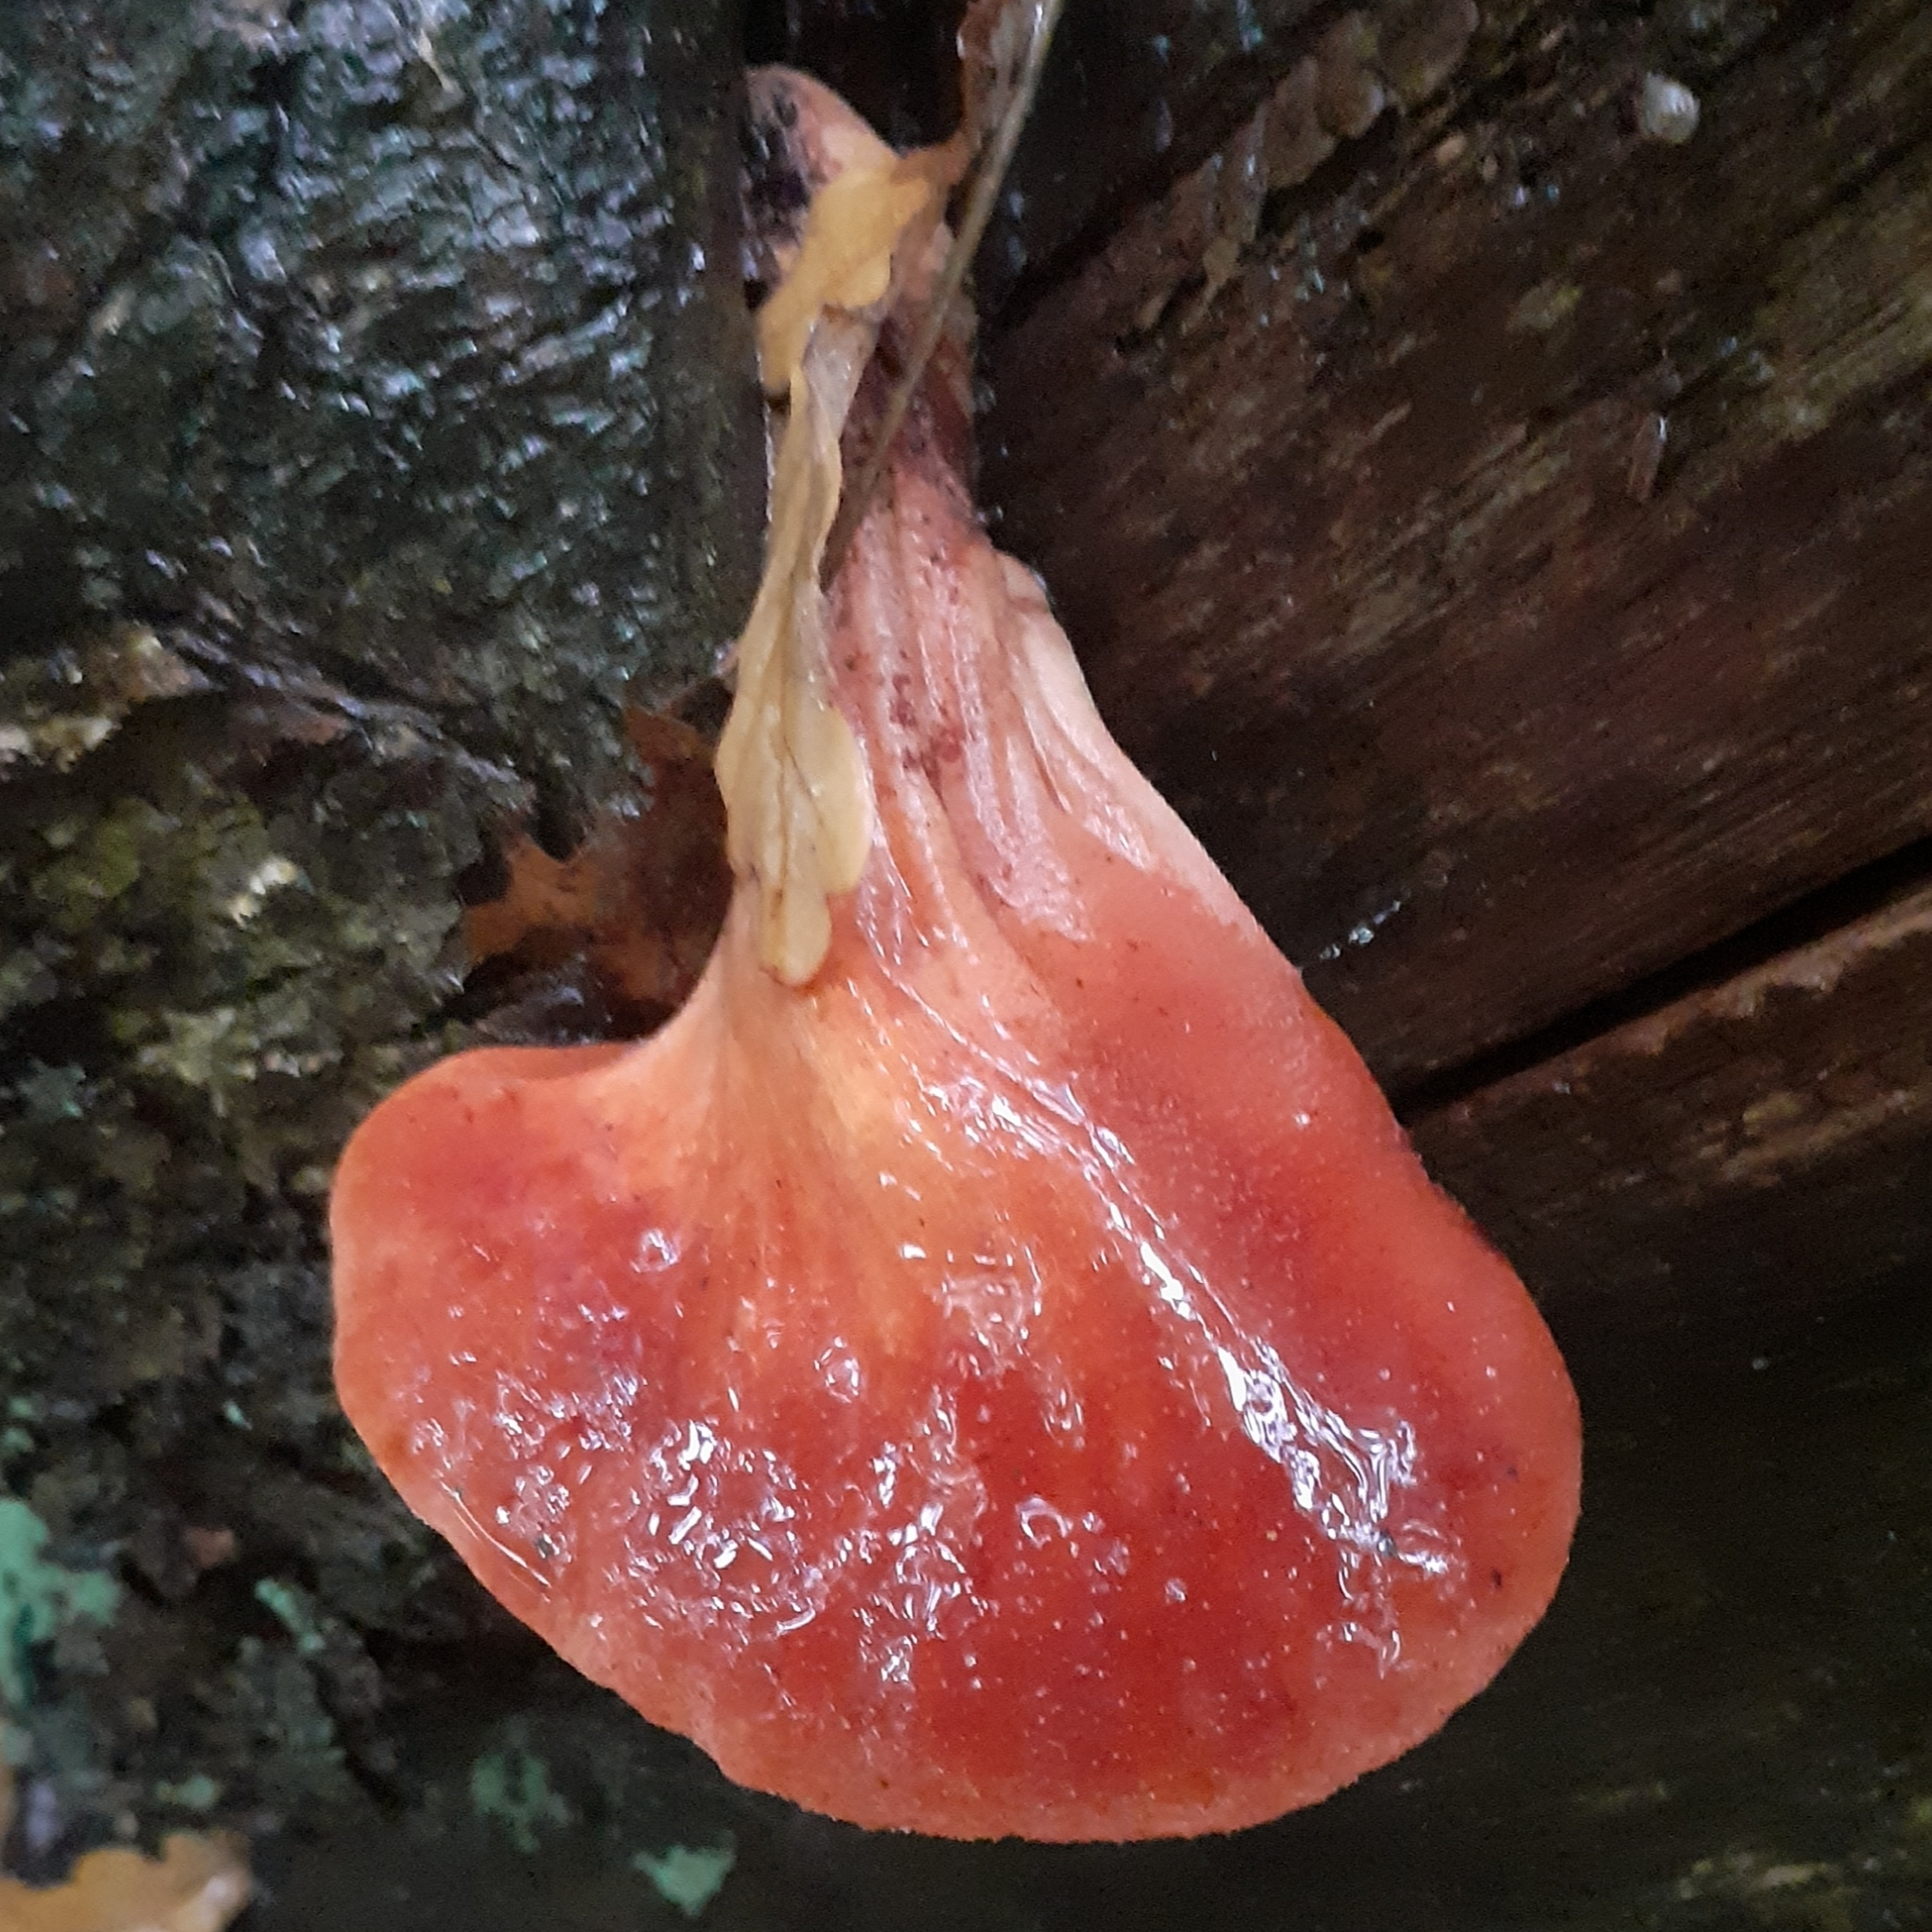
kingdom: Fungi
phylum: Basidiomycota
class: Agaricomycetes
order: Agaricales
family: Fistulinaceae
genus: Fistulina
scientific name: Fistulina hepatica
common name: Beef-steak fungus
